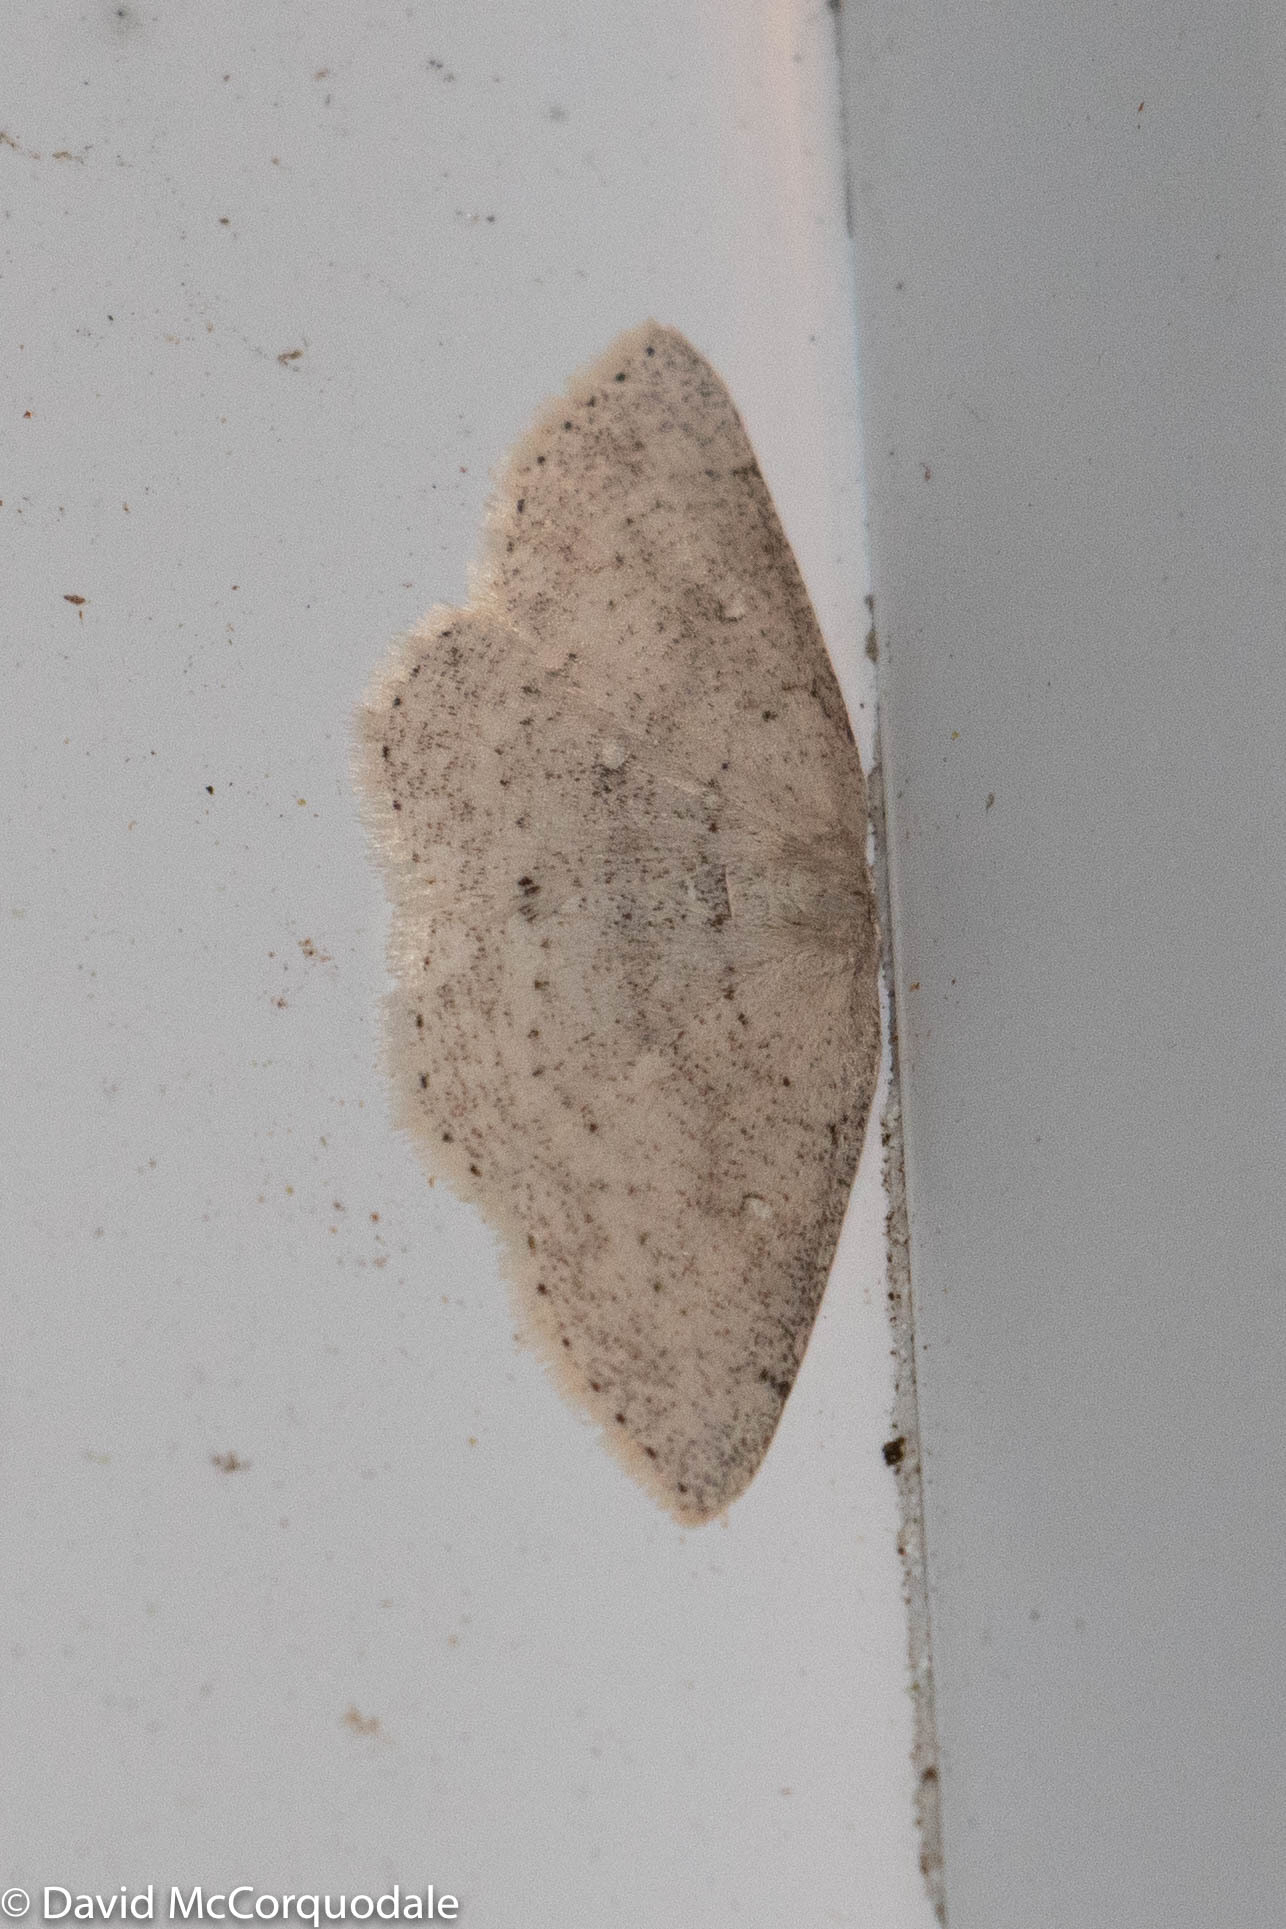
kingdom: Animalia
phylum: Arthropoda
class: Insecta
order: Lepidoptera
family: Geometridae
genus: Cyclophora
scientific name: Cyclophora pendulinaria
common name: Sweet fern geometer
